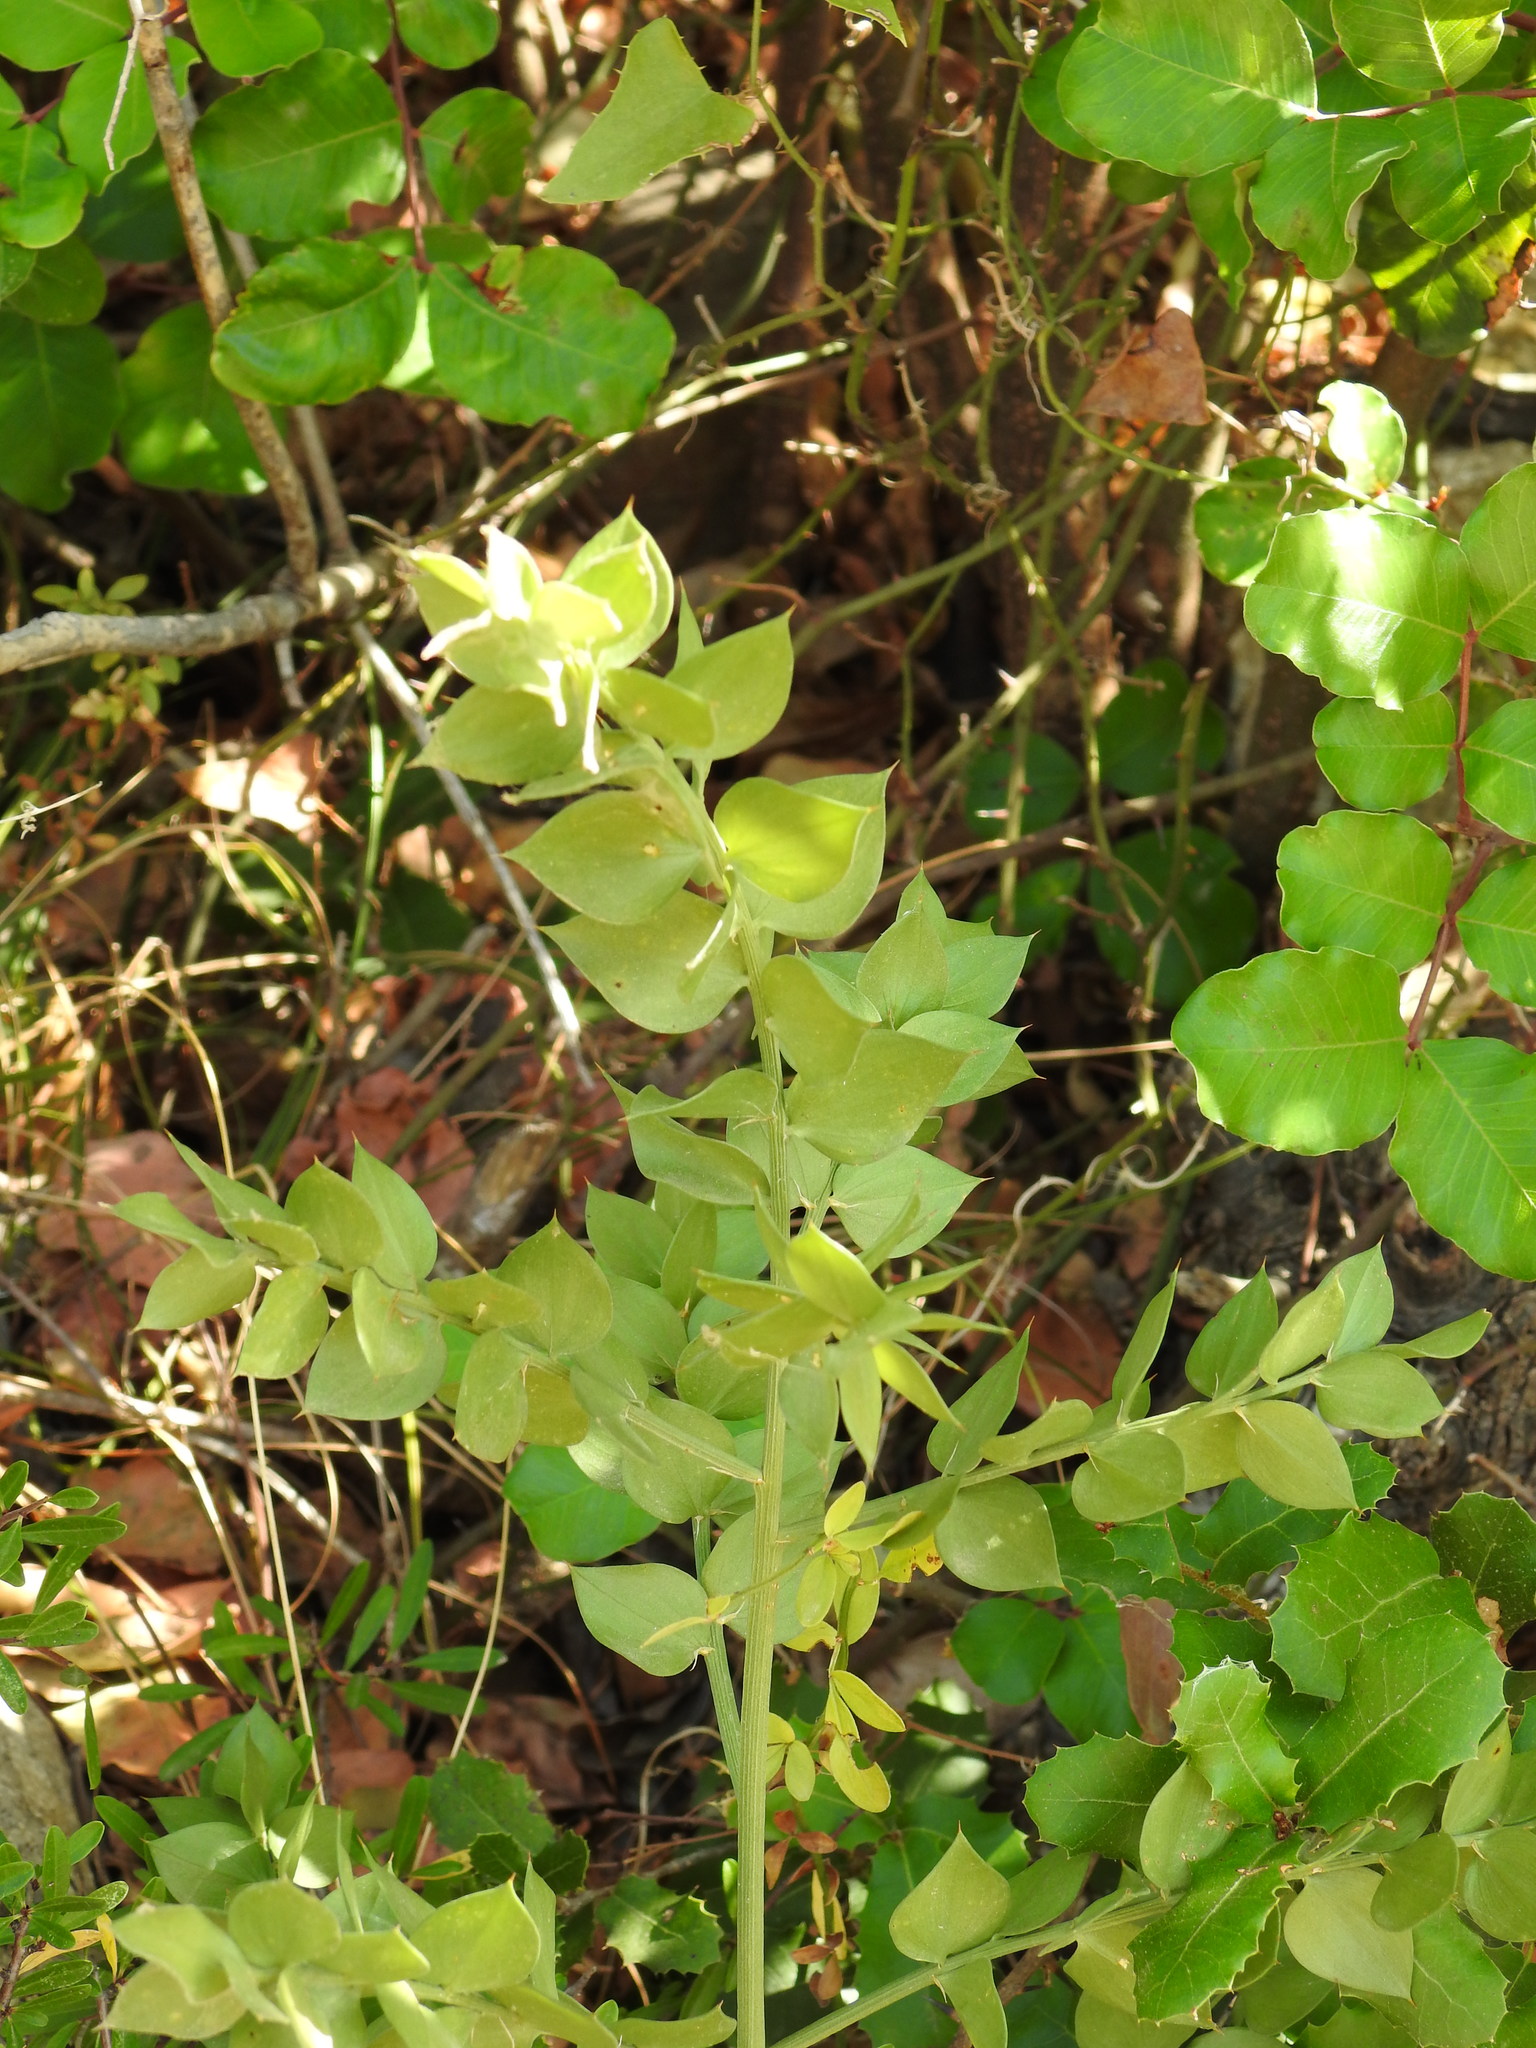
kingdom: Plantae
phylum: Tracheophyta
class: Liliopsida
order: Asparagales
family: Asparagaceae
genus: Ruscus
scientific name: Ruscus aculeatus
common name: Butcher's-broom
